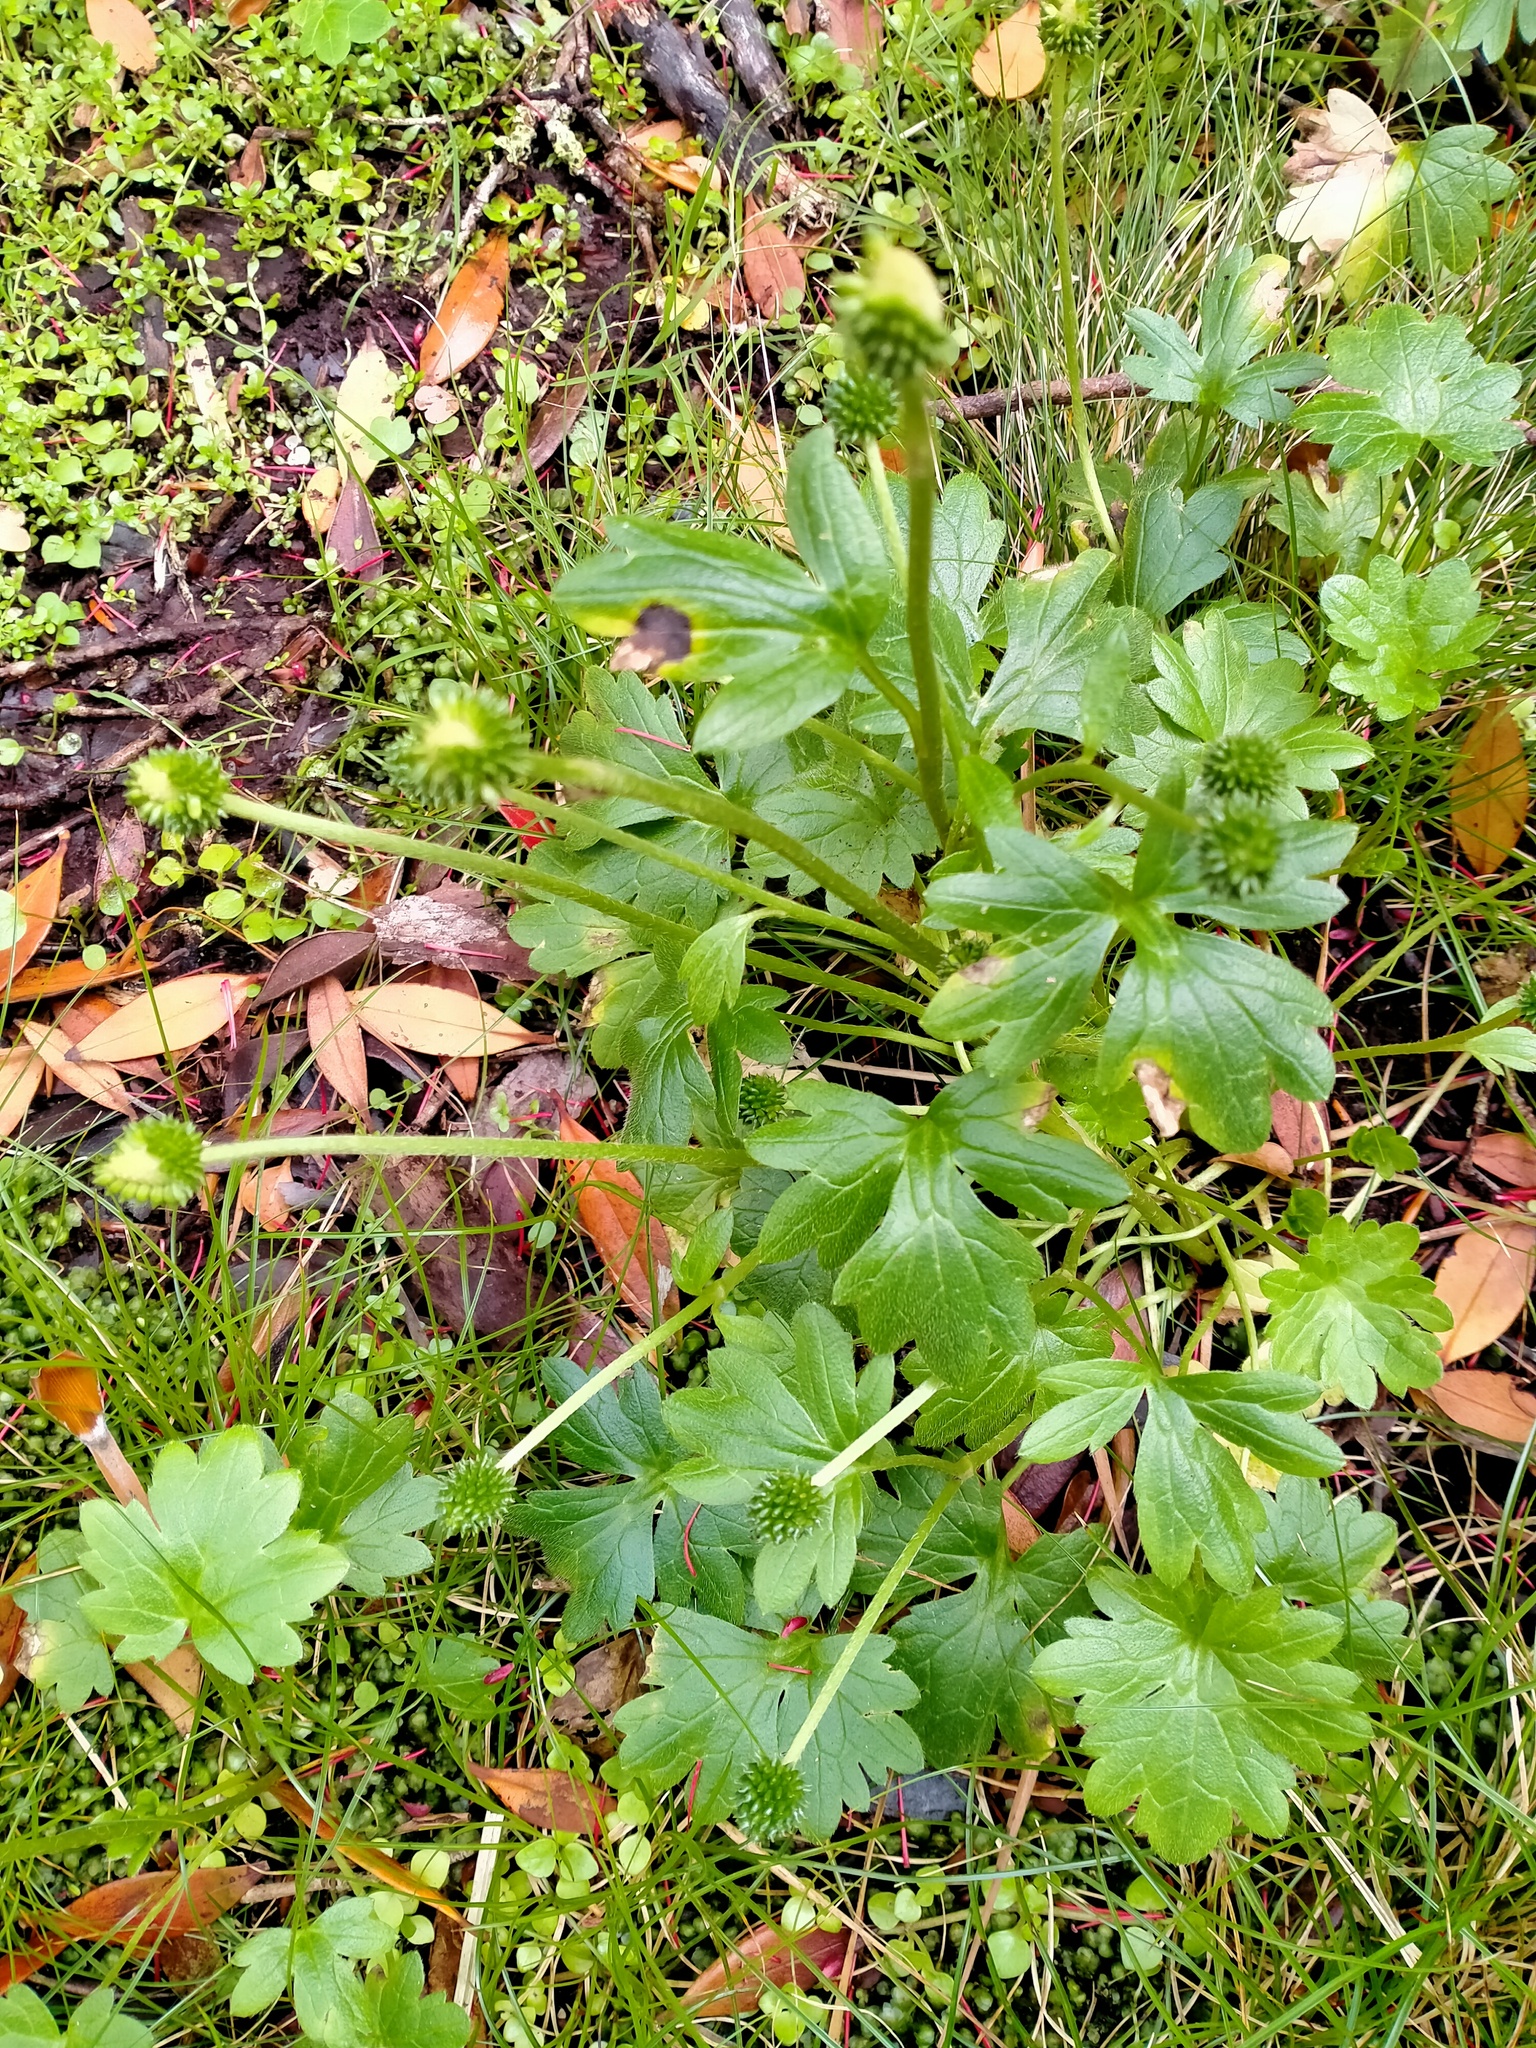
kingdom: Plantae
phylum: Tracheophyta
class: Magnoliopsida
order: Ranunculales
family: Ranunculaceae
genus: Ranunculus
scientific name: Ranunculus subscaposus
